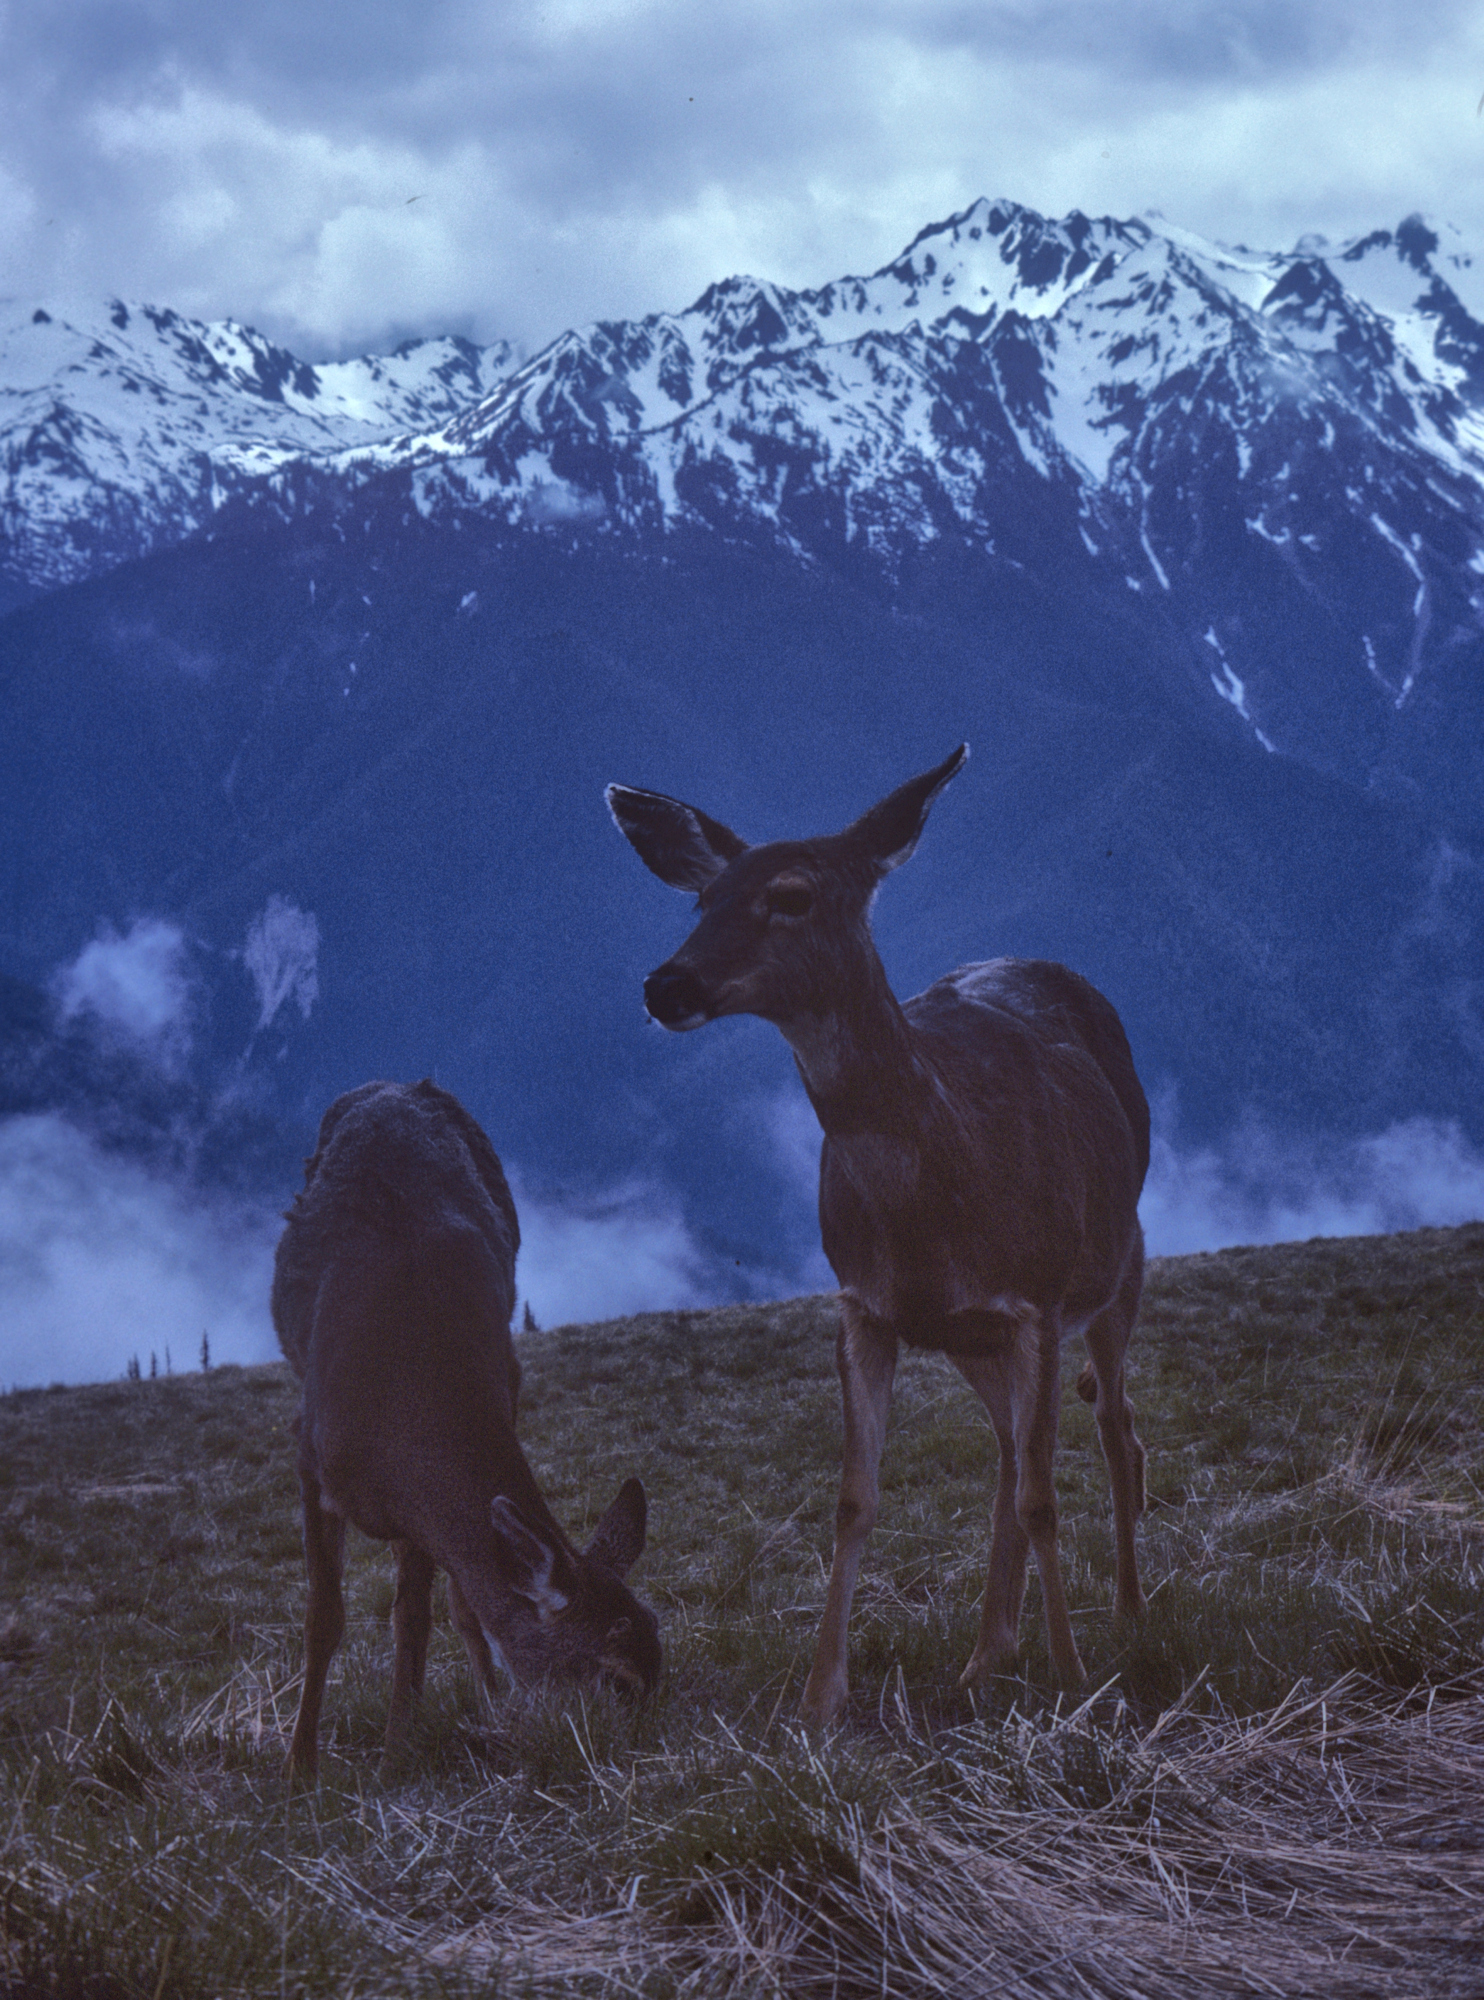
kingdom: Animalia
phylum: Chordata
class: Mammalia
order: Artiodactyla
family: Cervidae
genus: Odocoileus
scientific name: Odocoileus hemionus
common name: Mule deer
